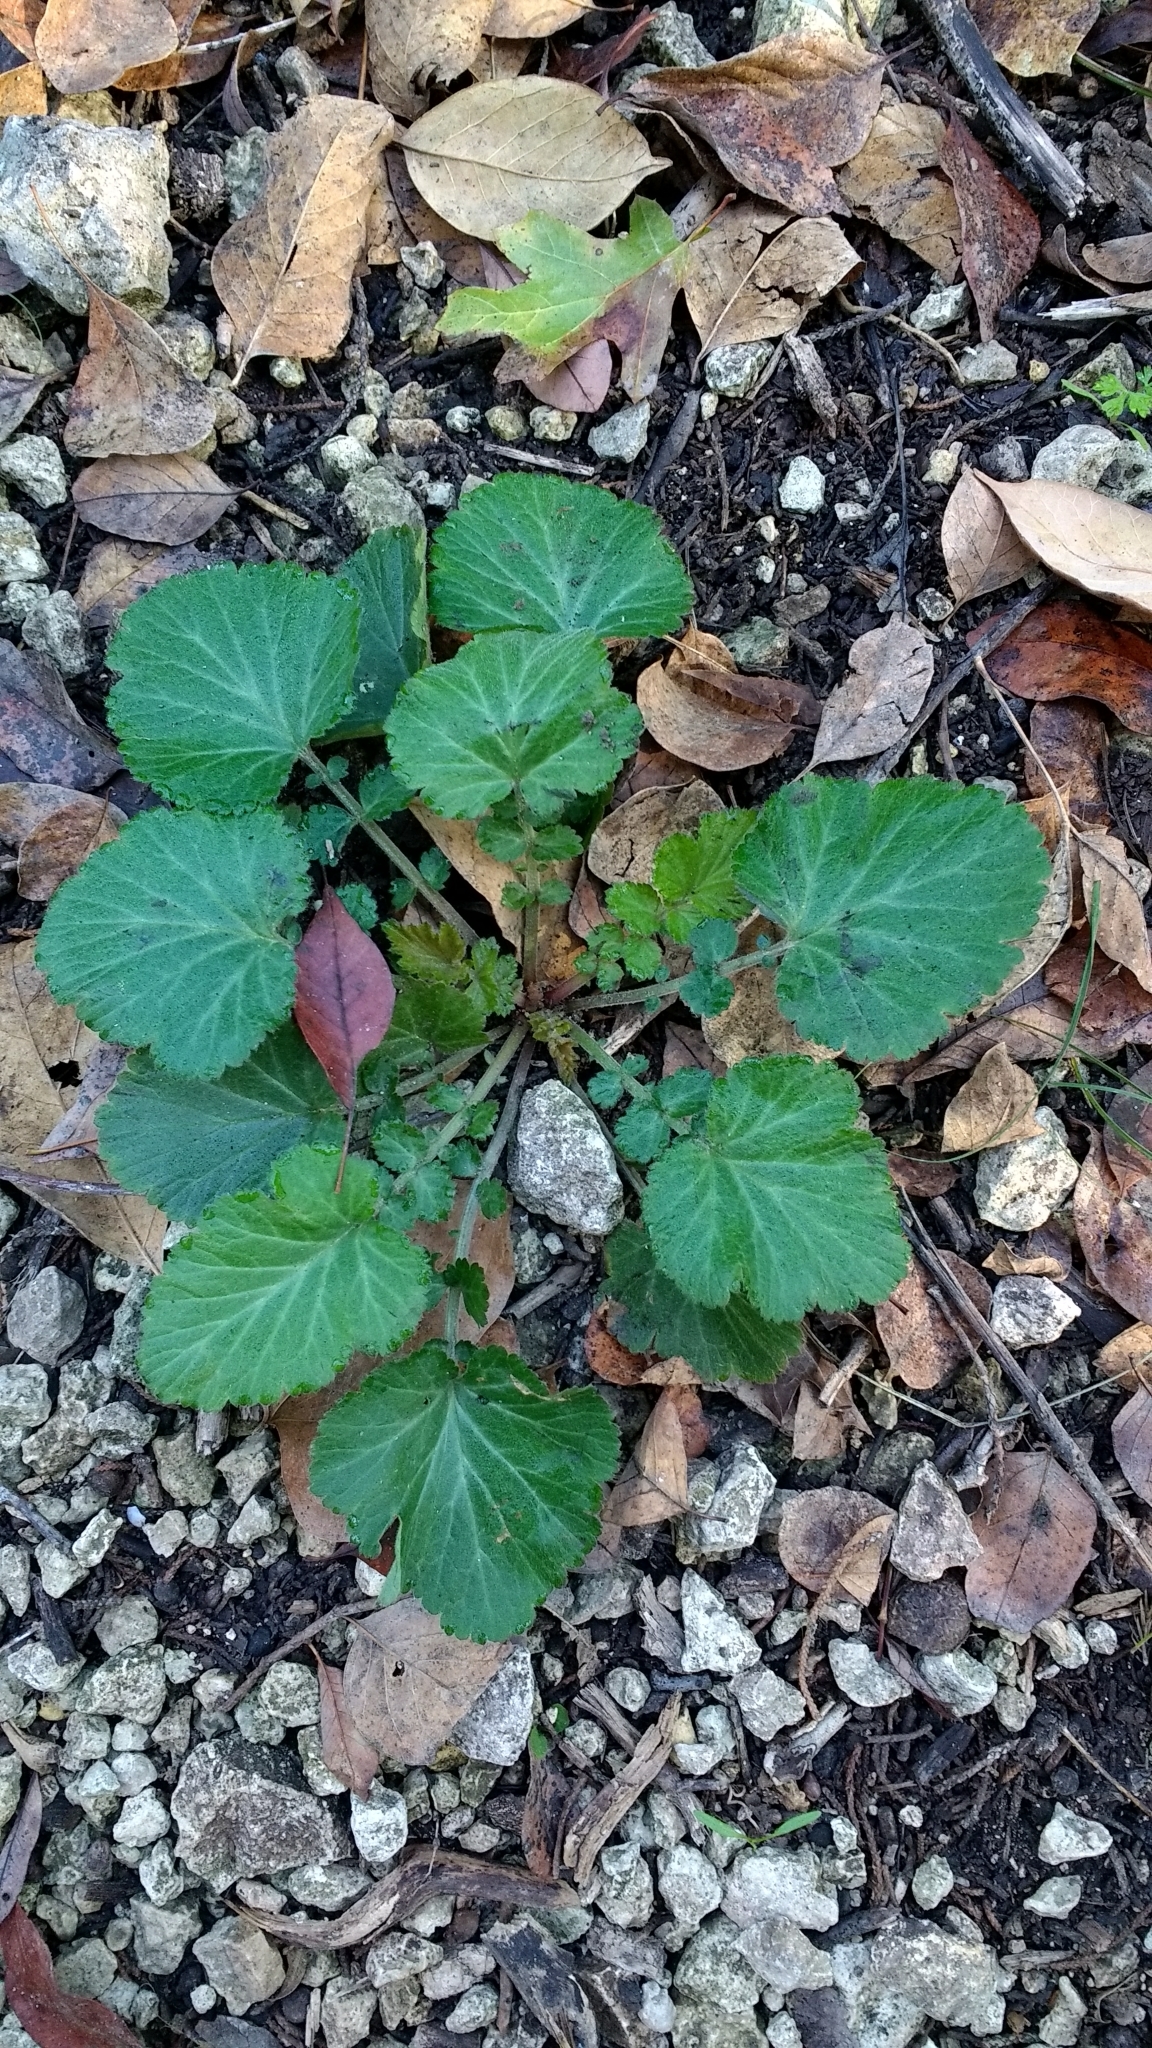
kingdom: Plantae
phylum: Tracheophyta
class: Magnoliopsida
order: Rosales
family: Rosaceae
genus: Geum
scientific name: Geum canadense
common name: White avens
